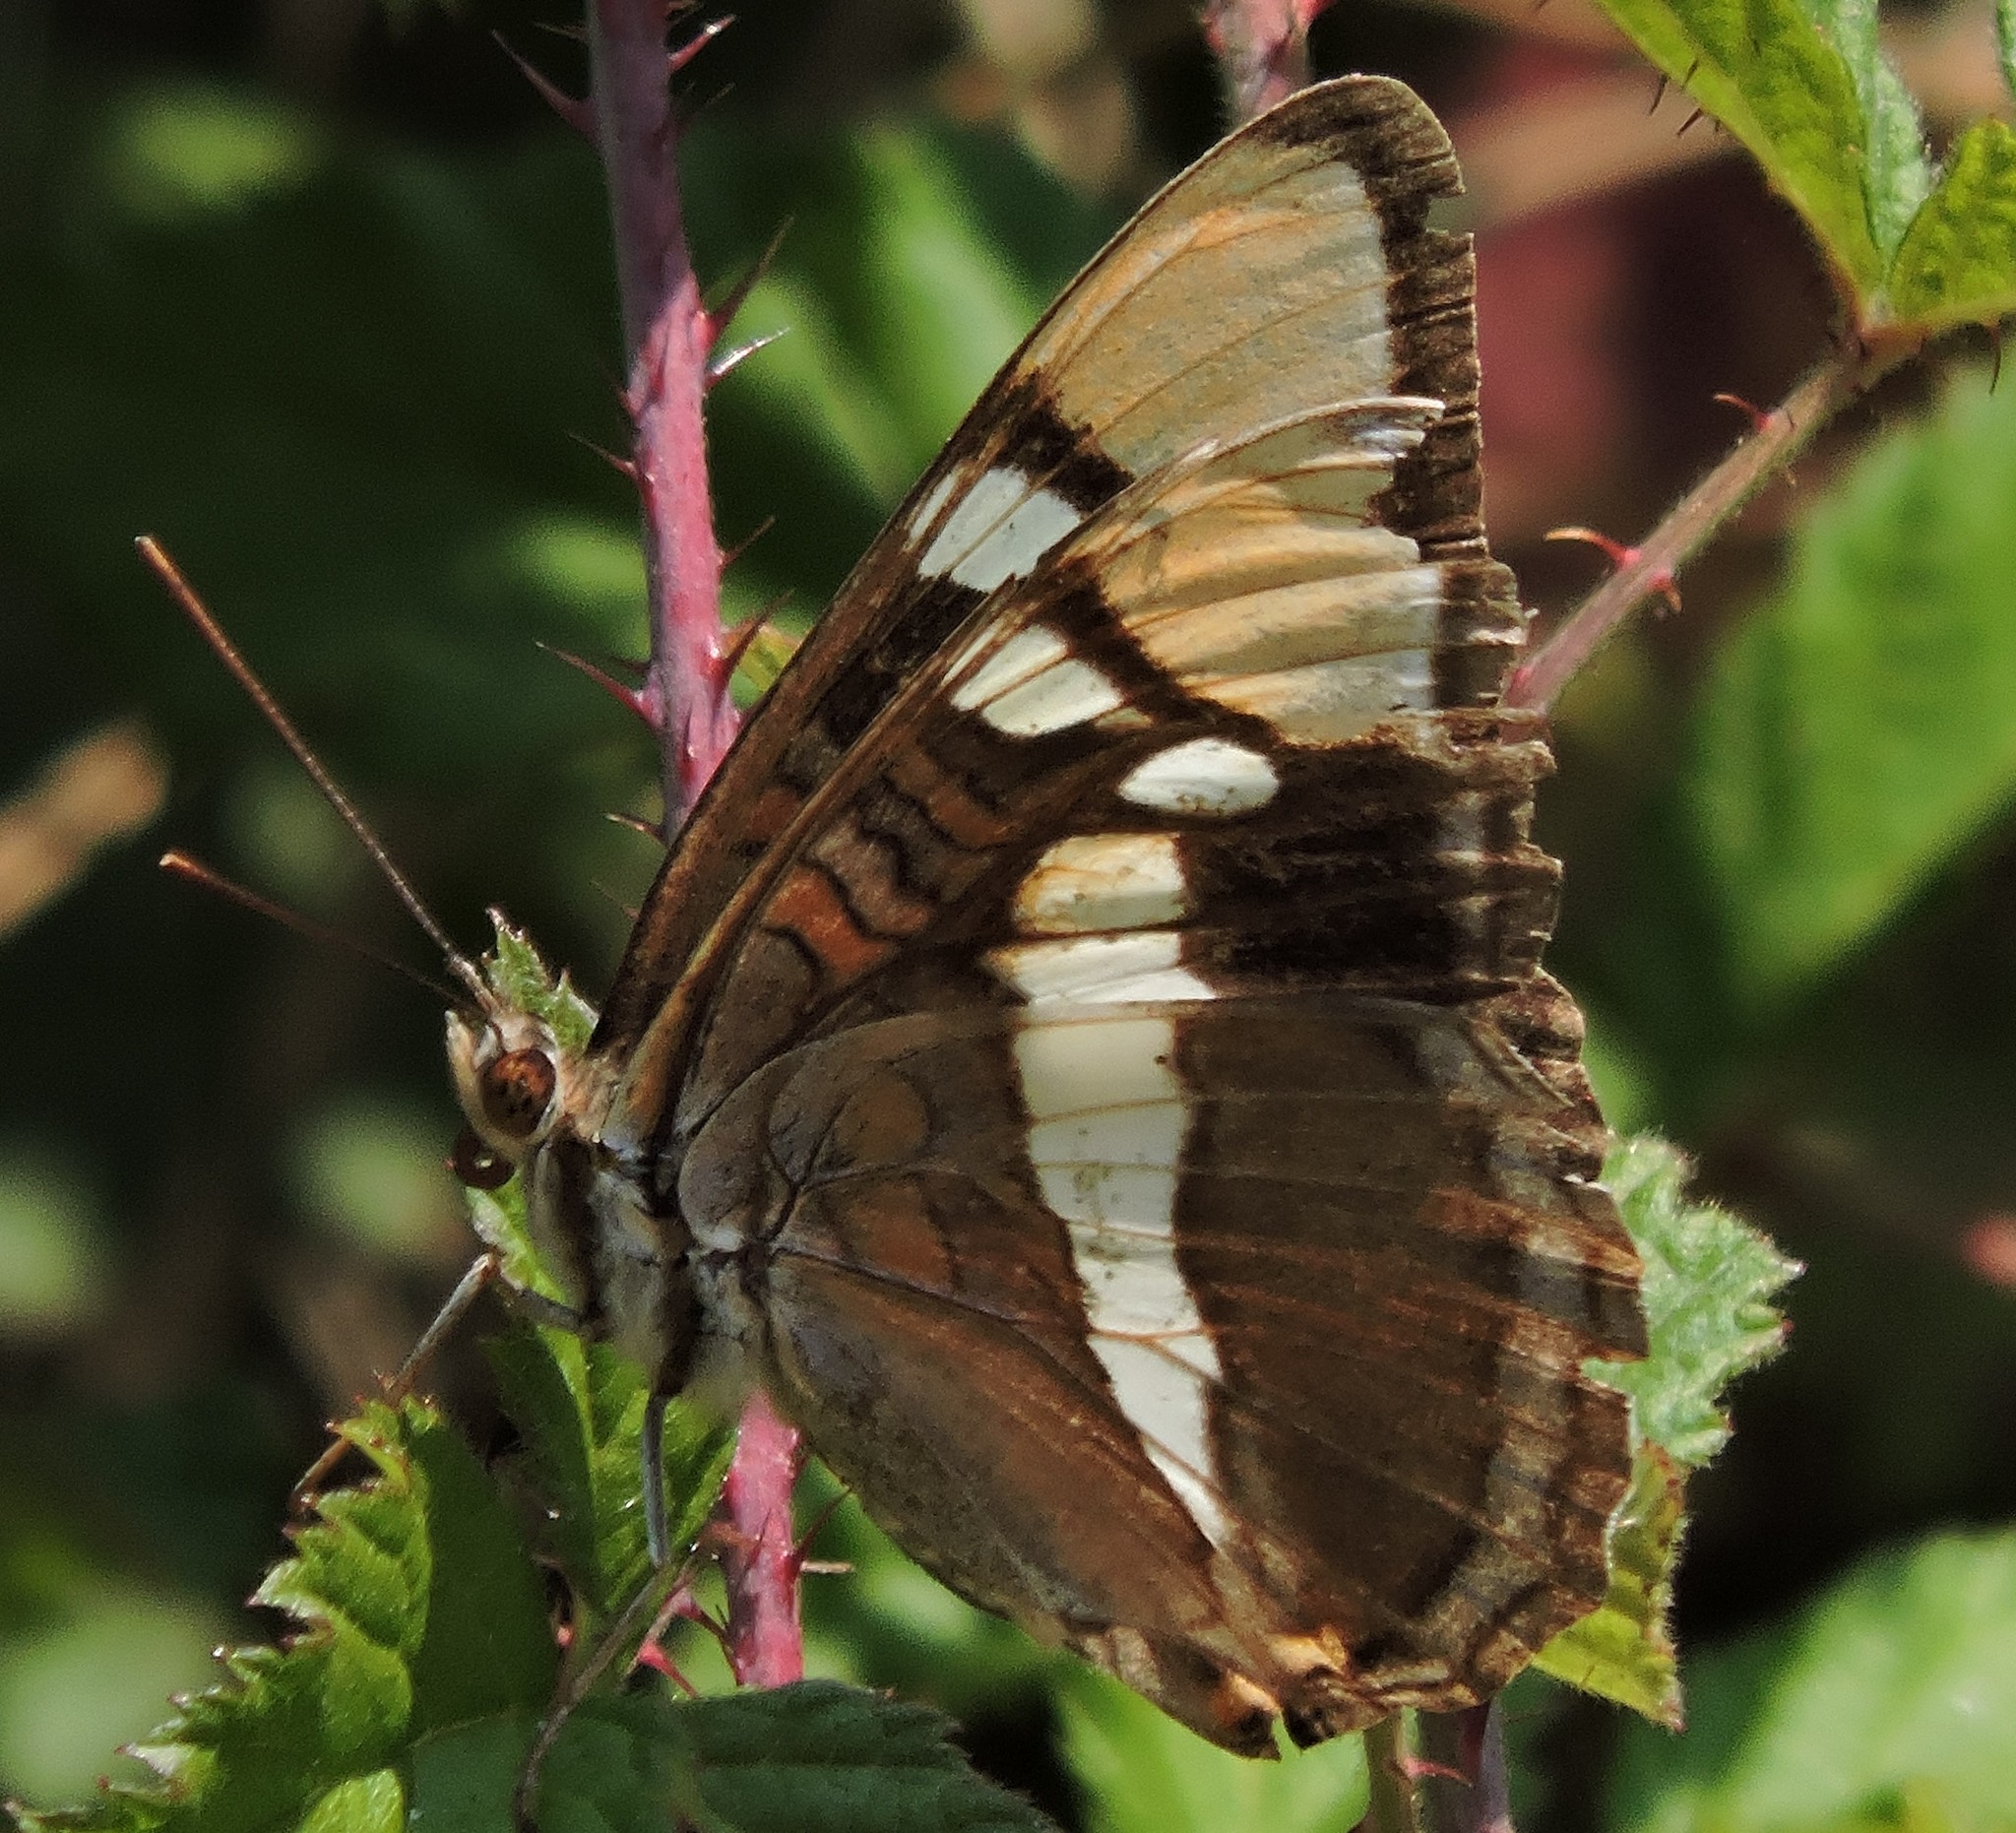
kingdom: Animalia
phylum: Arthropoda
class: Insecta
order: Lepidoptera
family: Nymphalidae
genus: Limenitis
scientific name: Limenitis bredowii
